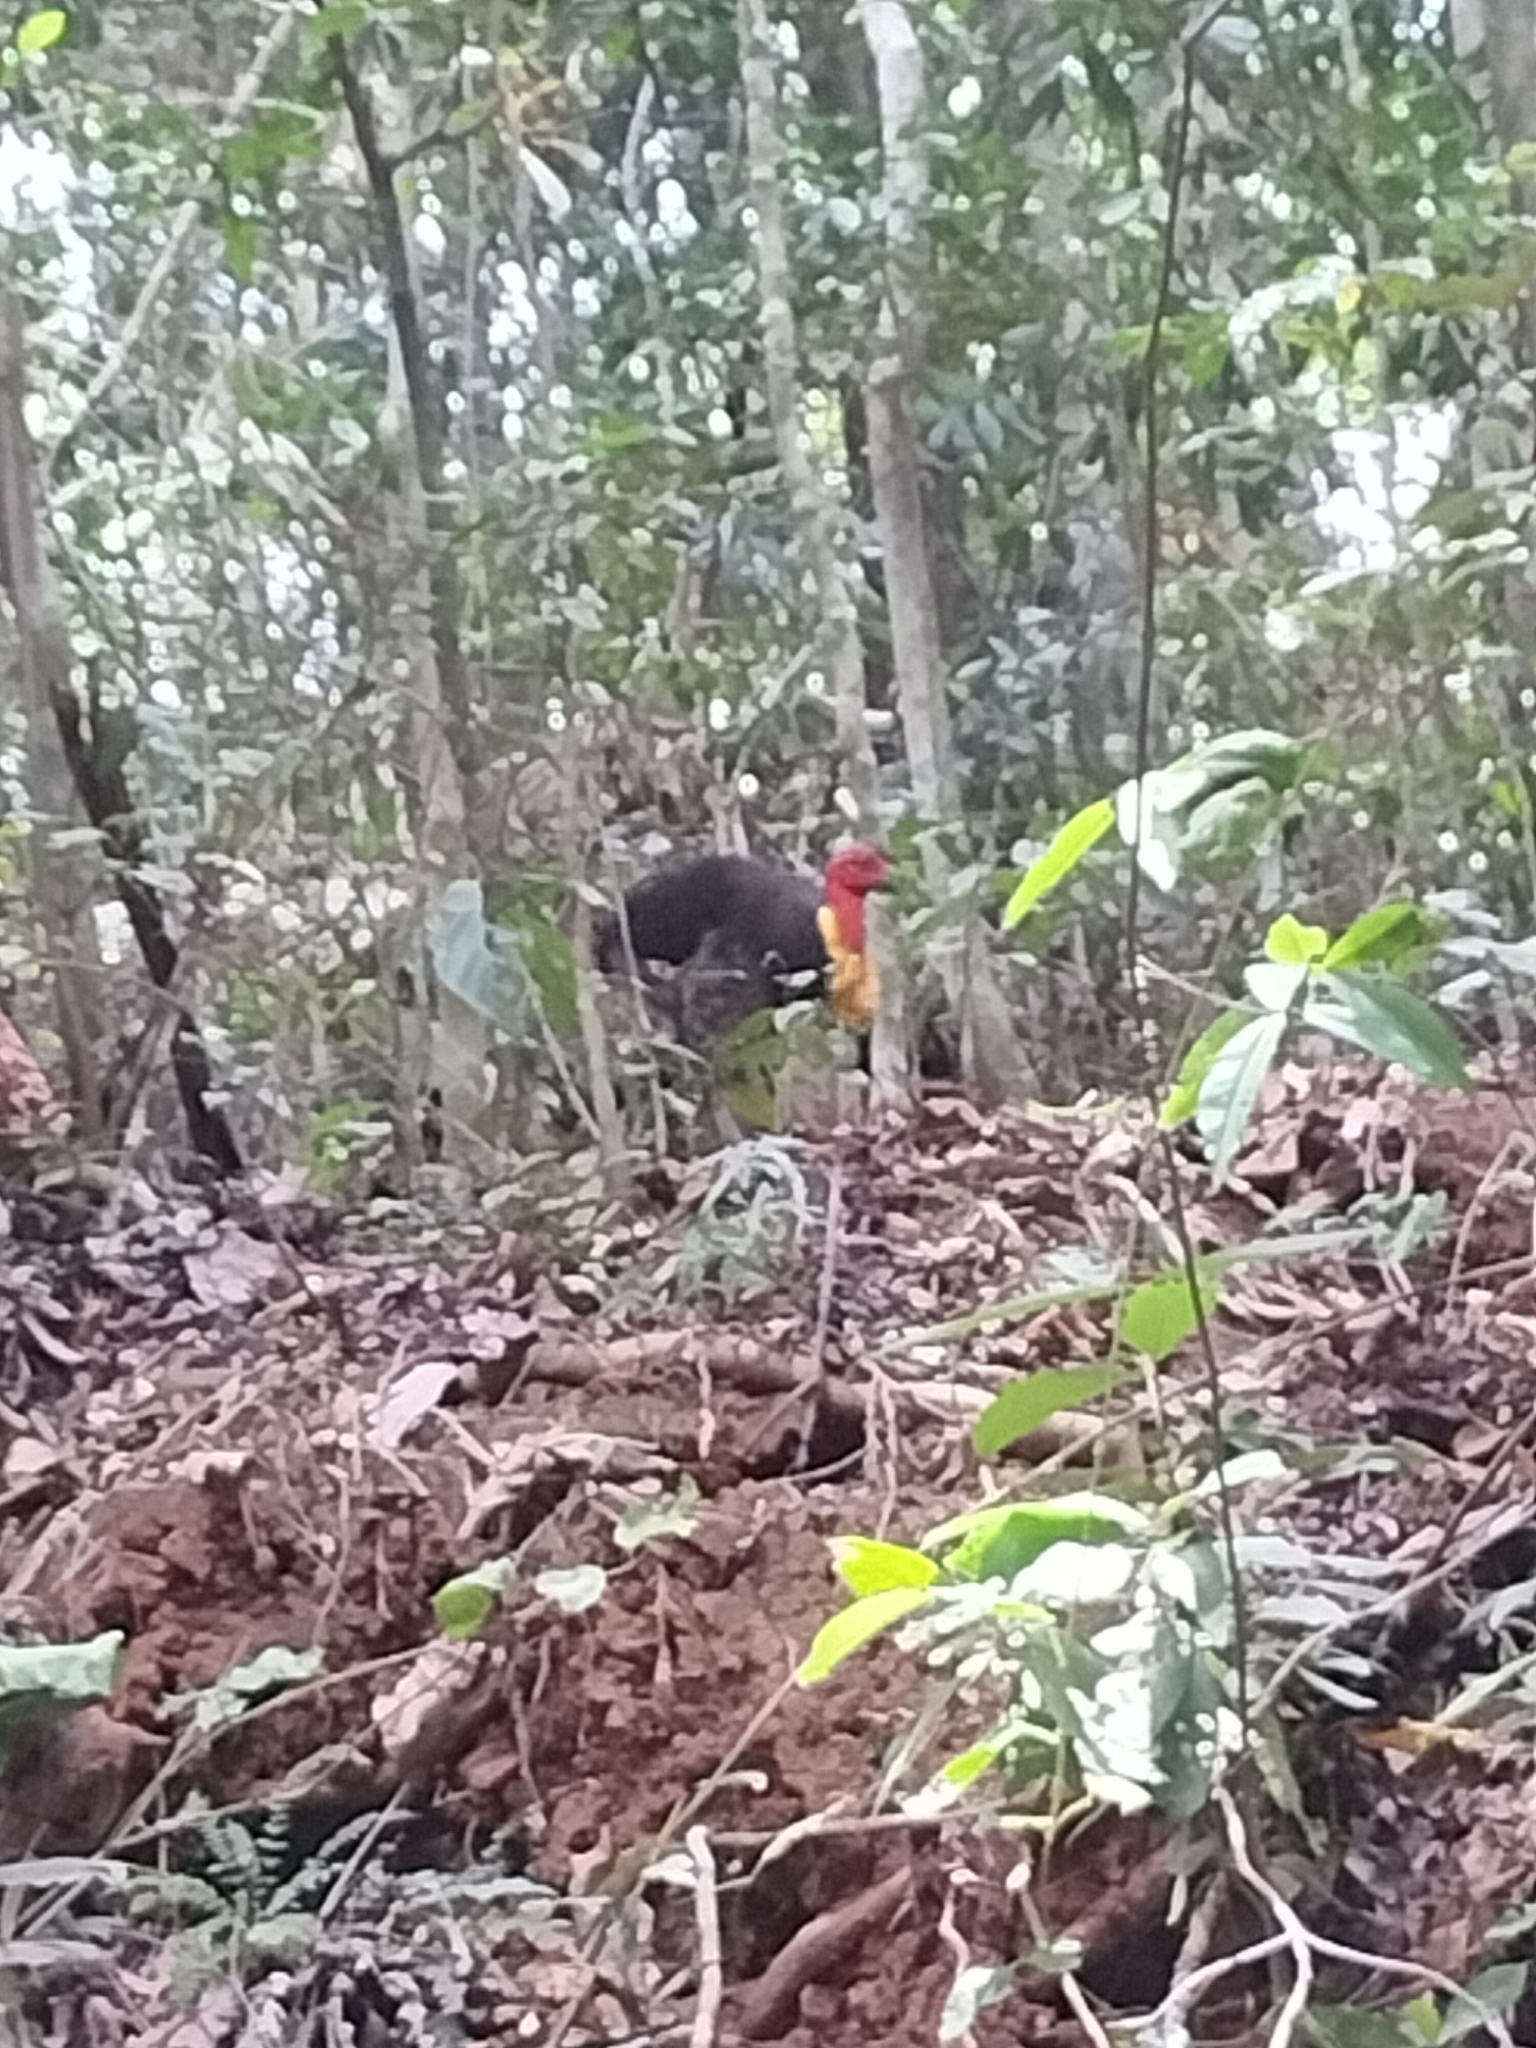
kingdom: Animalia
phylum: Chordata
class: Aves
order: Galliformes
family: Megapodiidae
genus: Alectura
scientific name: Alectura lathami
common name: Australian brushturkey
